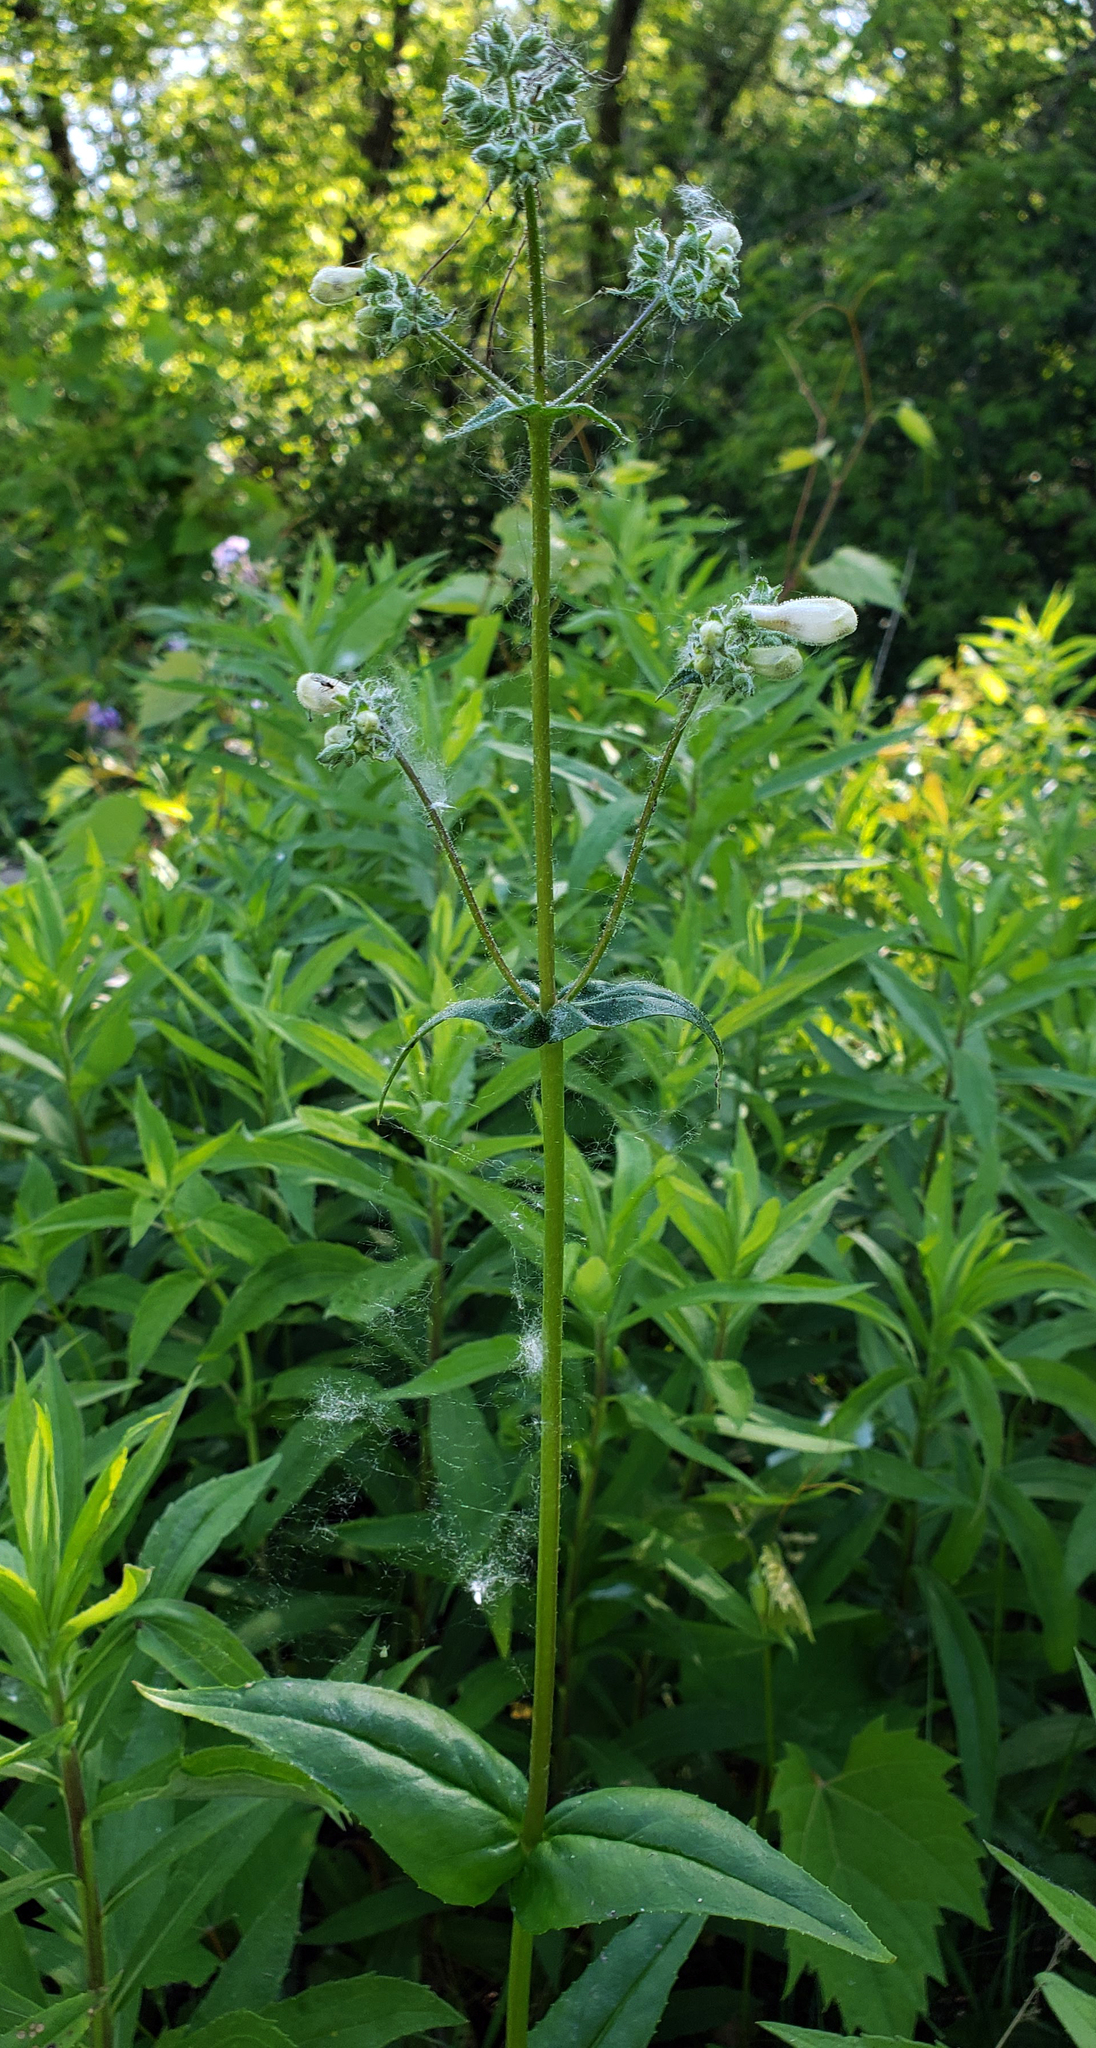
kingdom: Plantae
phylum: Tracheophyta
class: Magnoliopsida
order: Lamiales
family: Plantaginaceae
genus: Penstemon
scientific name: Penstemon digitalis
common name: Foxglove beardtongue
